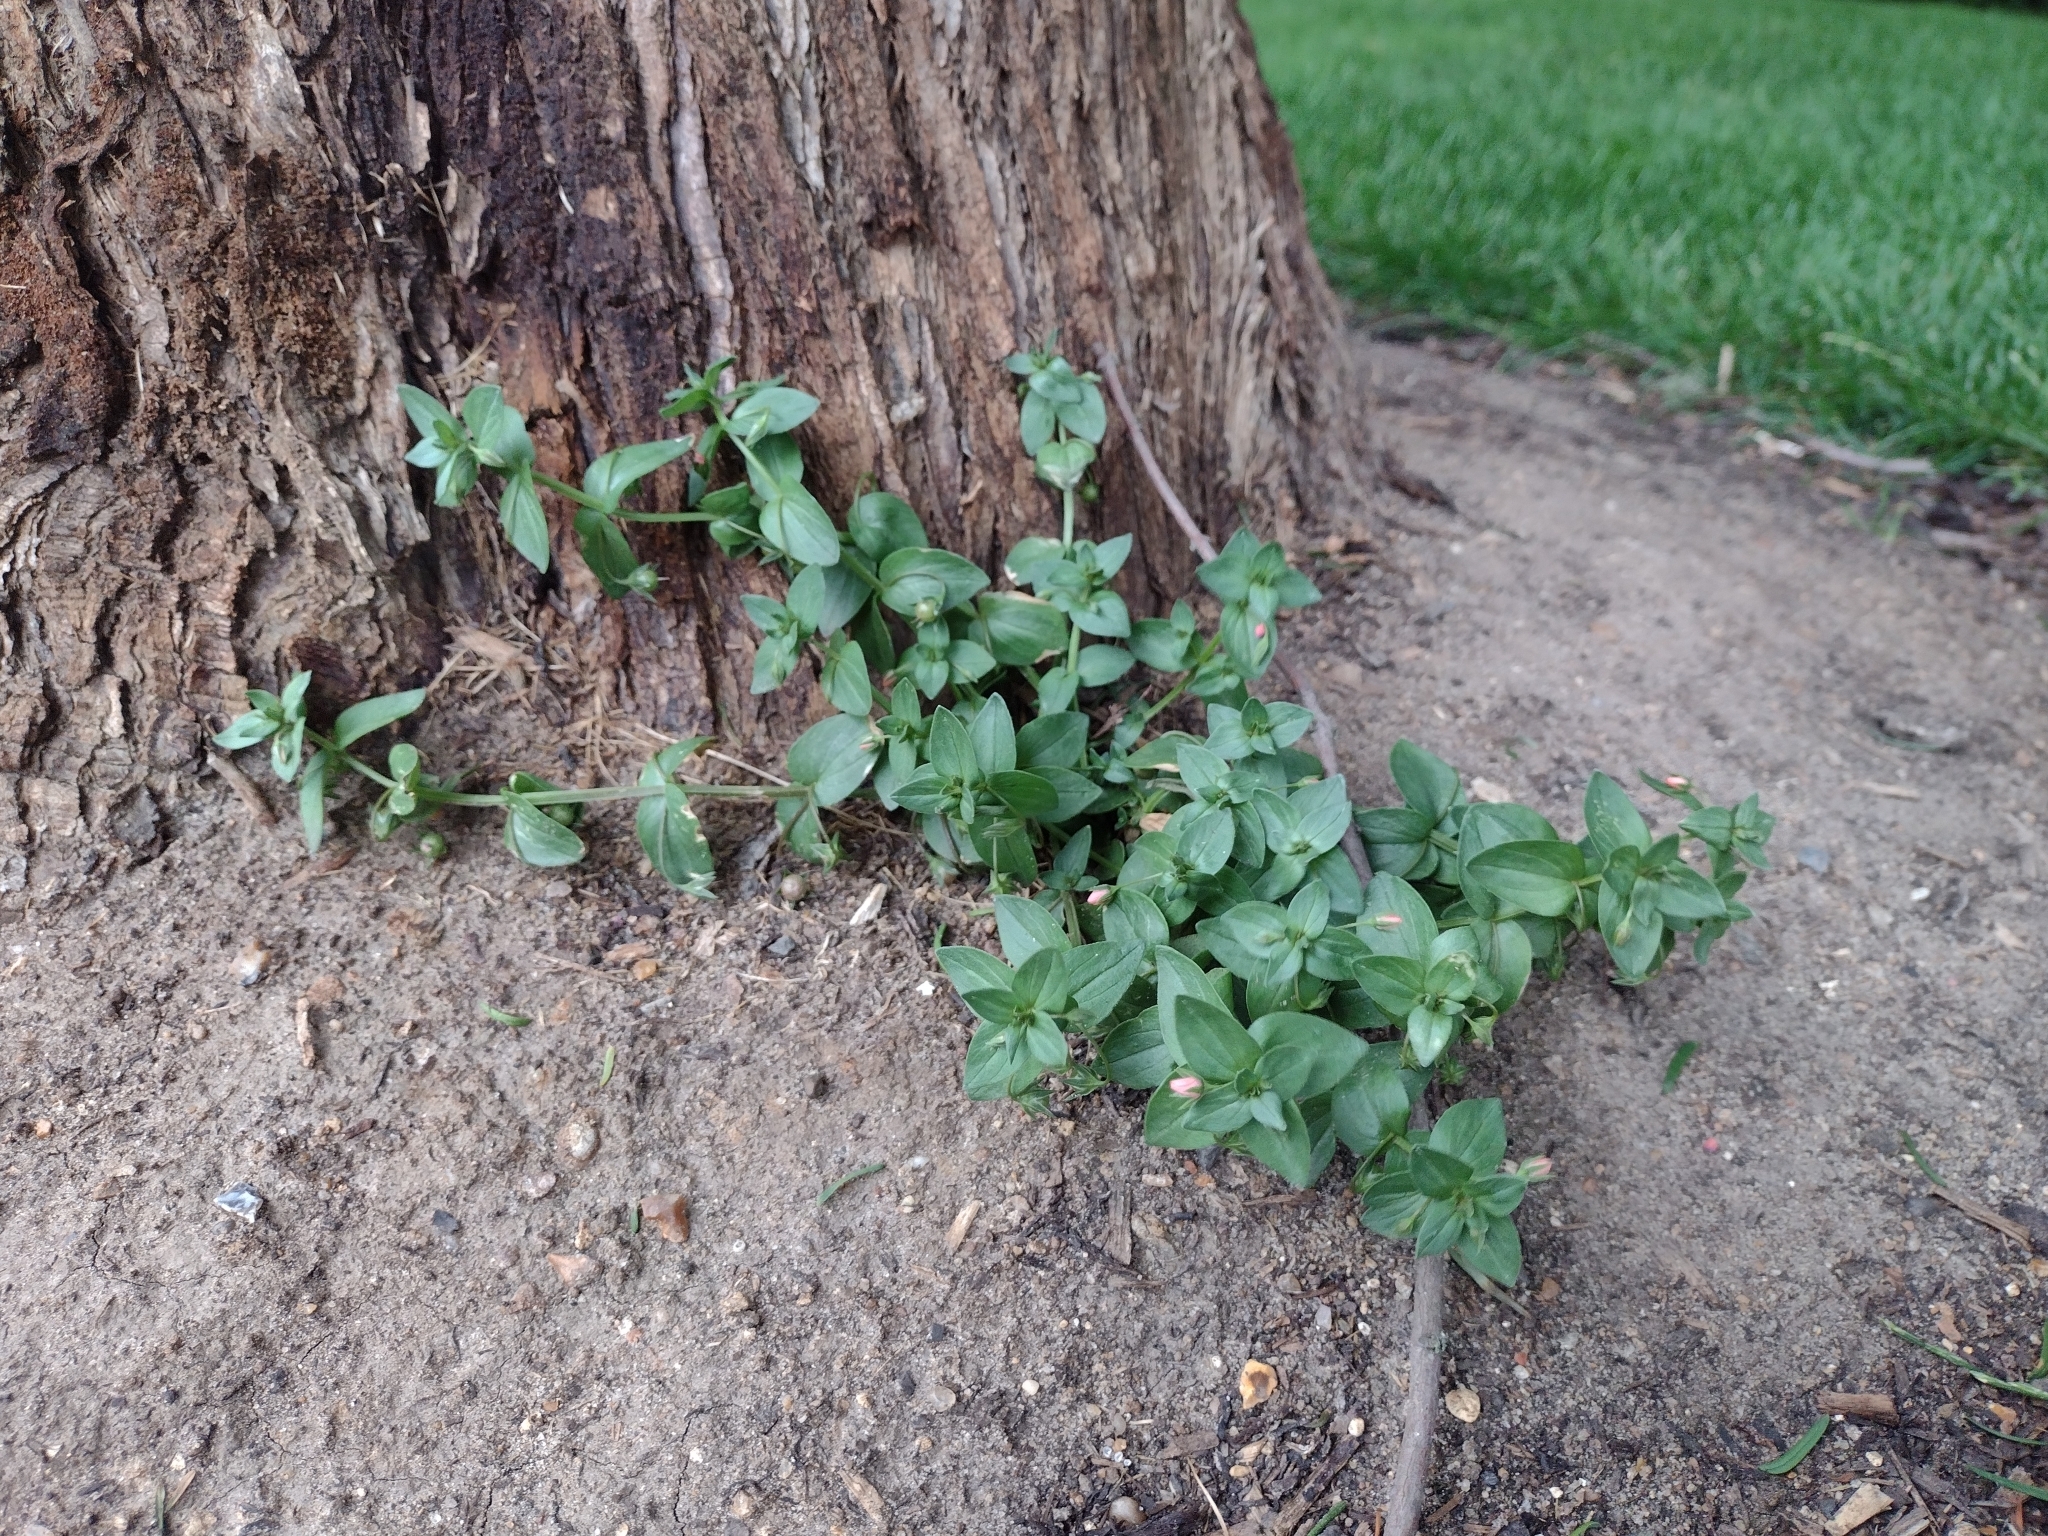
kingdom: Plantae
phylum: Tracheophyta
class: Magnoliopsida
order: Ericales
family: Primulaceae
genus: Lysimachia
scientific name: Lysimachia arvensis
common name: Scarlet pimpernel
